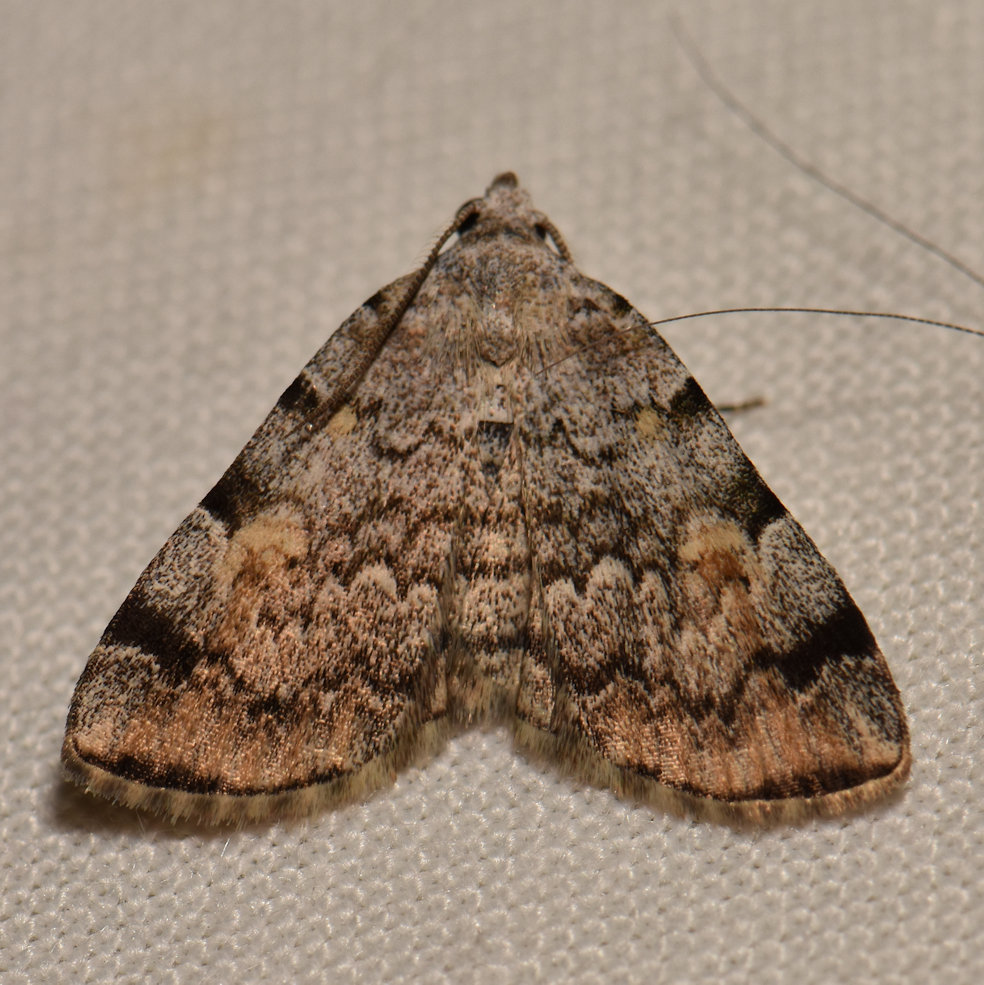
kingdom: Animalia
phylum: Arthropoda
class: Insecta
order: Lepidoptera
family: Erebidae
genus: Idia
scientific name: Idia americalis
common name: American idia moth
